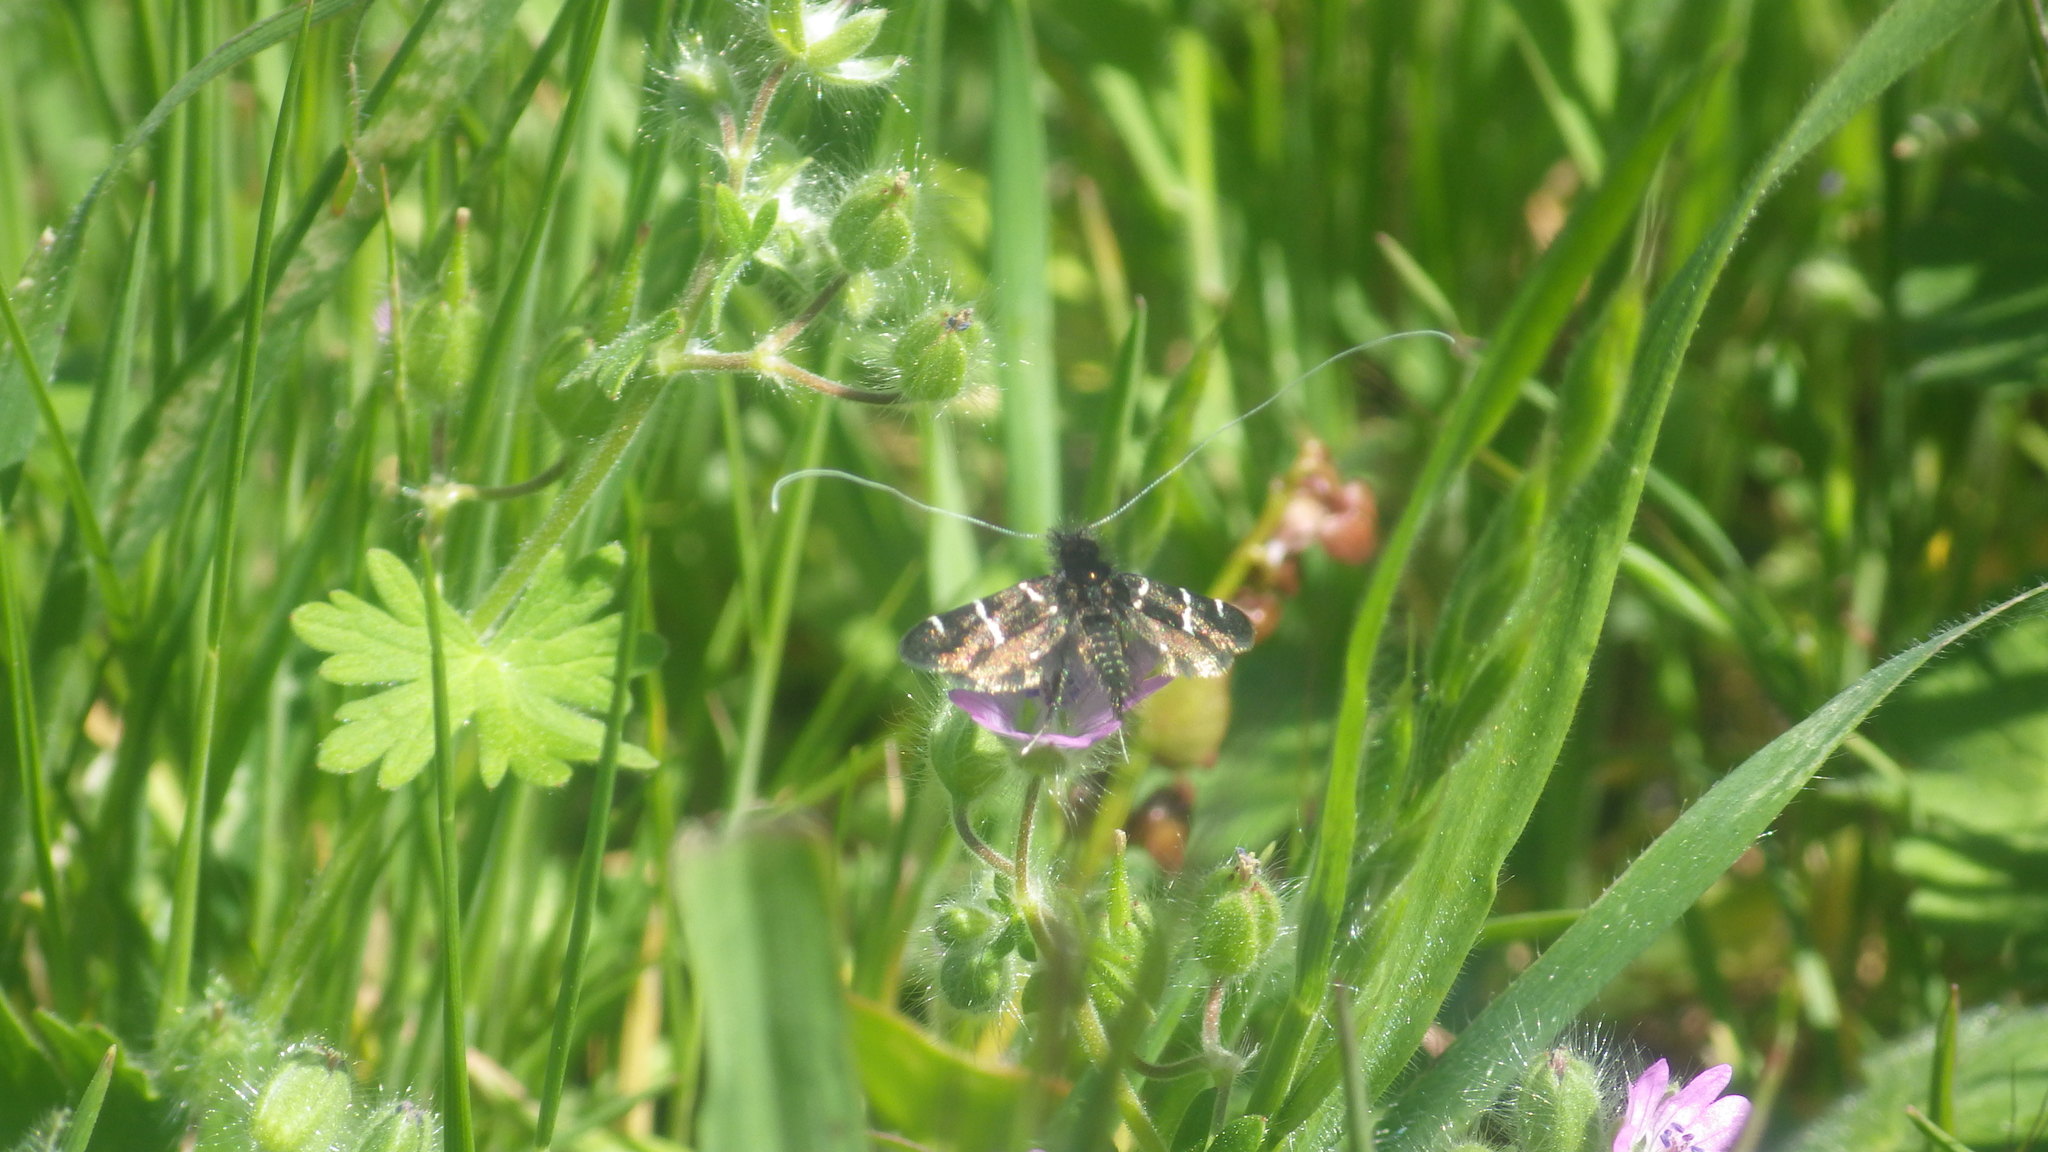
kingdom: Animalia
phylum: Arthropoda
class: Insecta
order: Lepidoptera
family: Adelidae
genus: Adela
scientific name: Adela trigrapha
